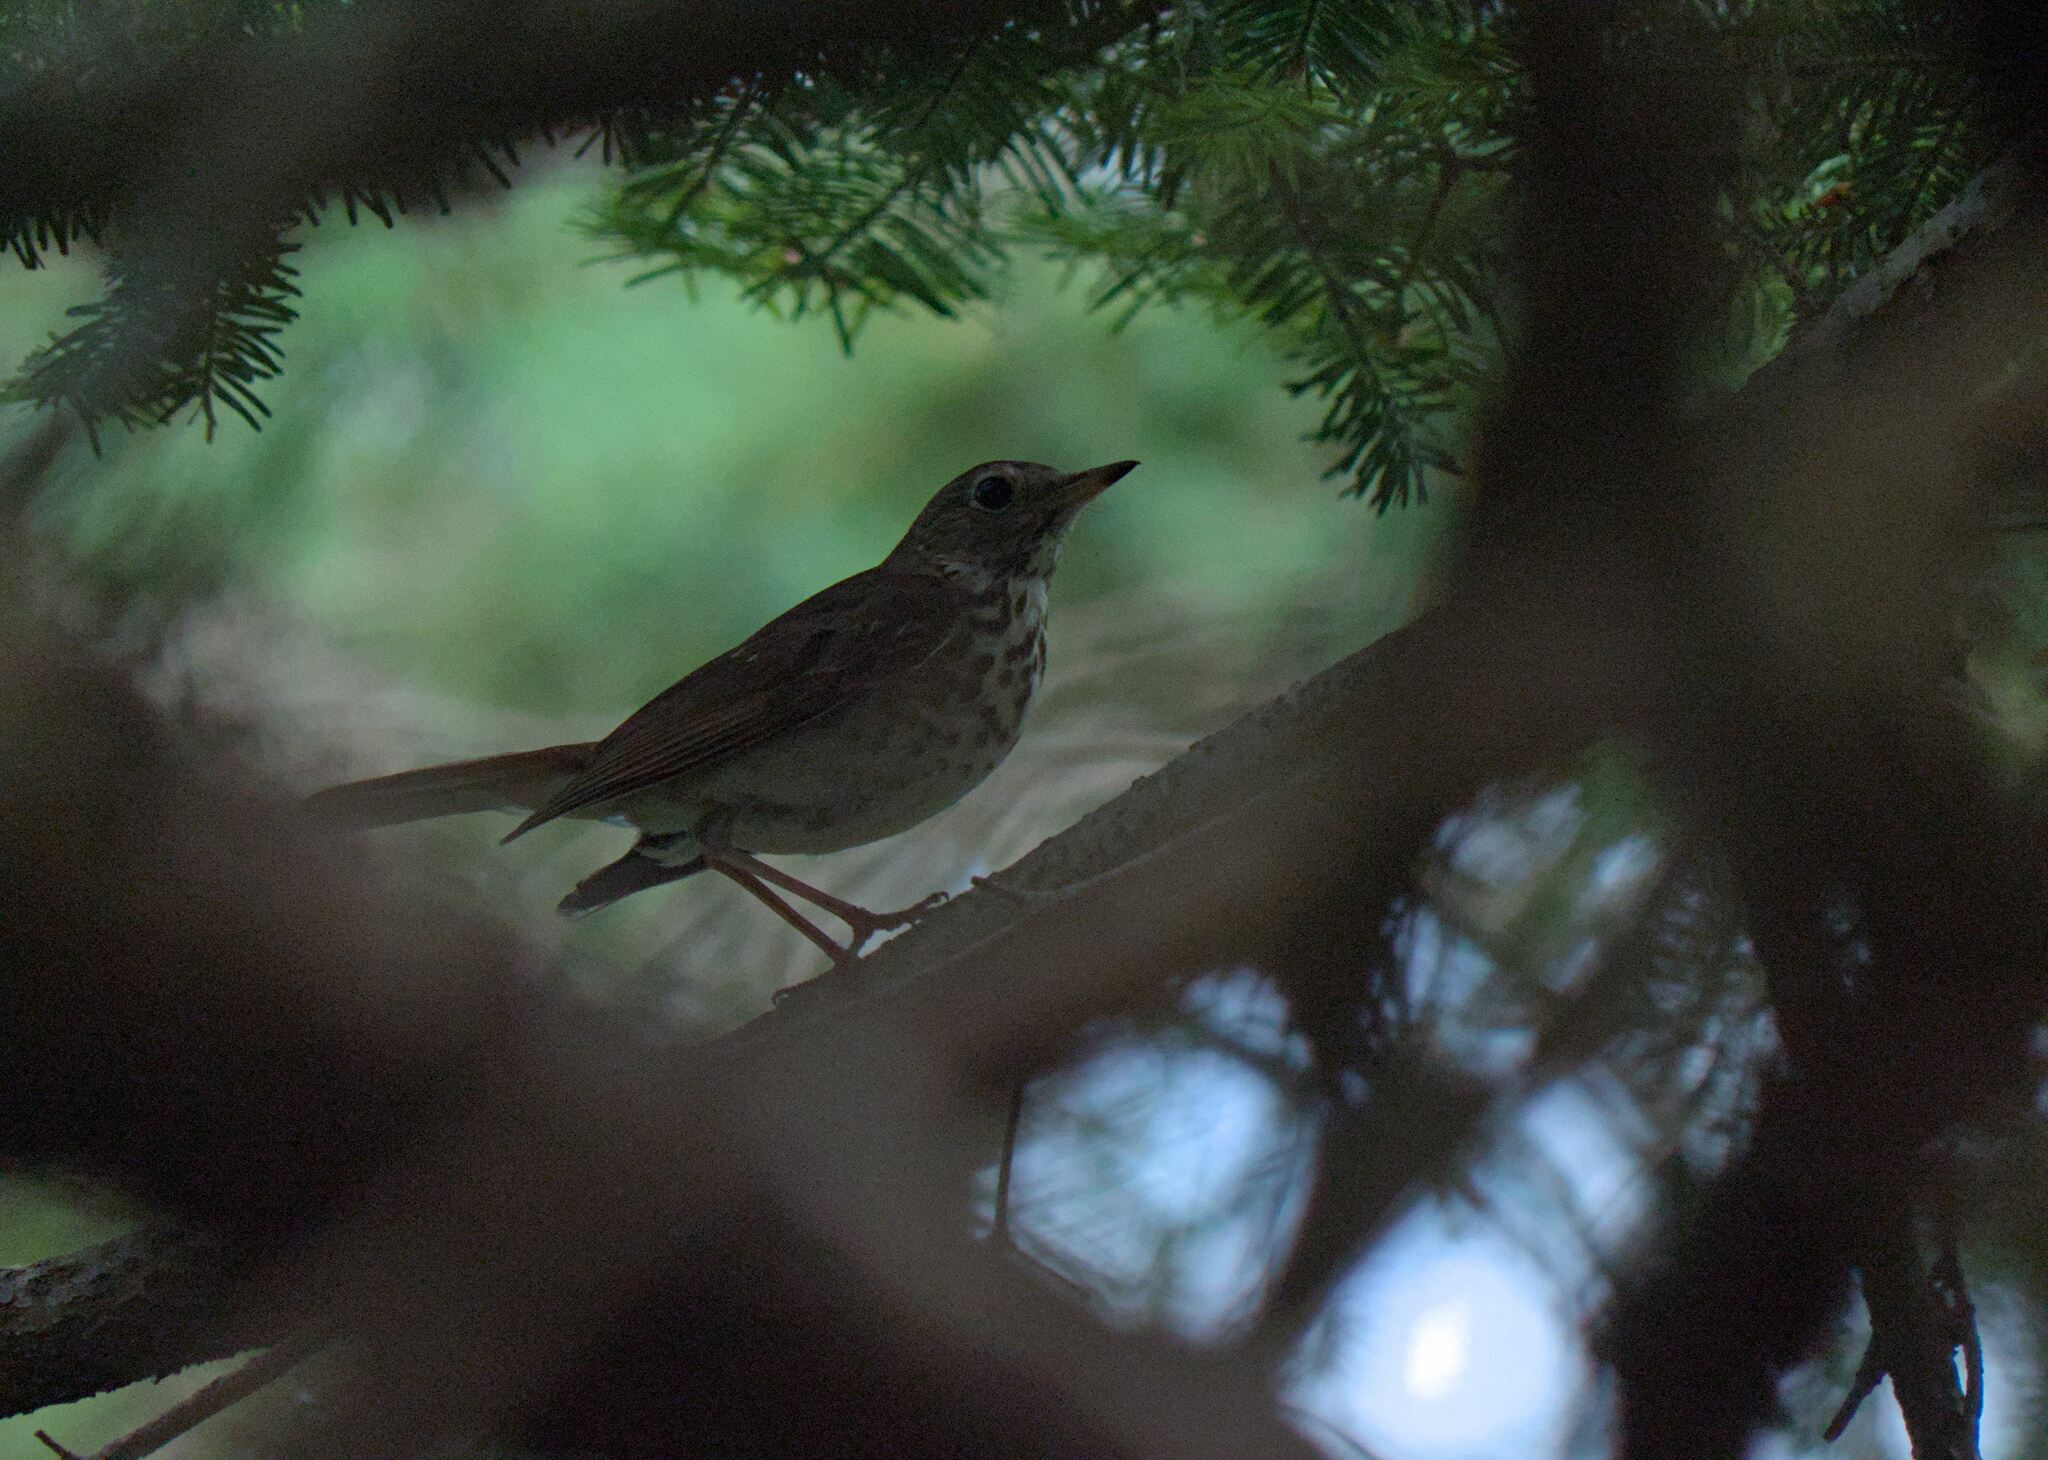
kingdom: Animalia
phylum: Chordata
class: Aves
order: Passeriformes
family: Turdidae
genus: Catharus
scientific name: Catharus guttatus
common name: Hermit thrush
